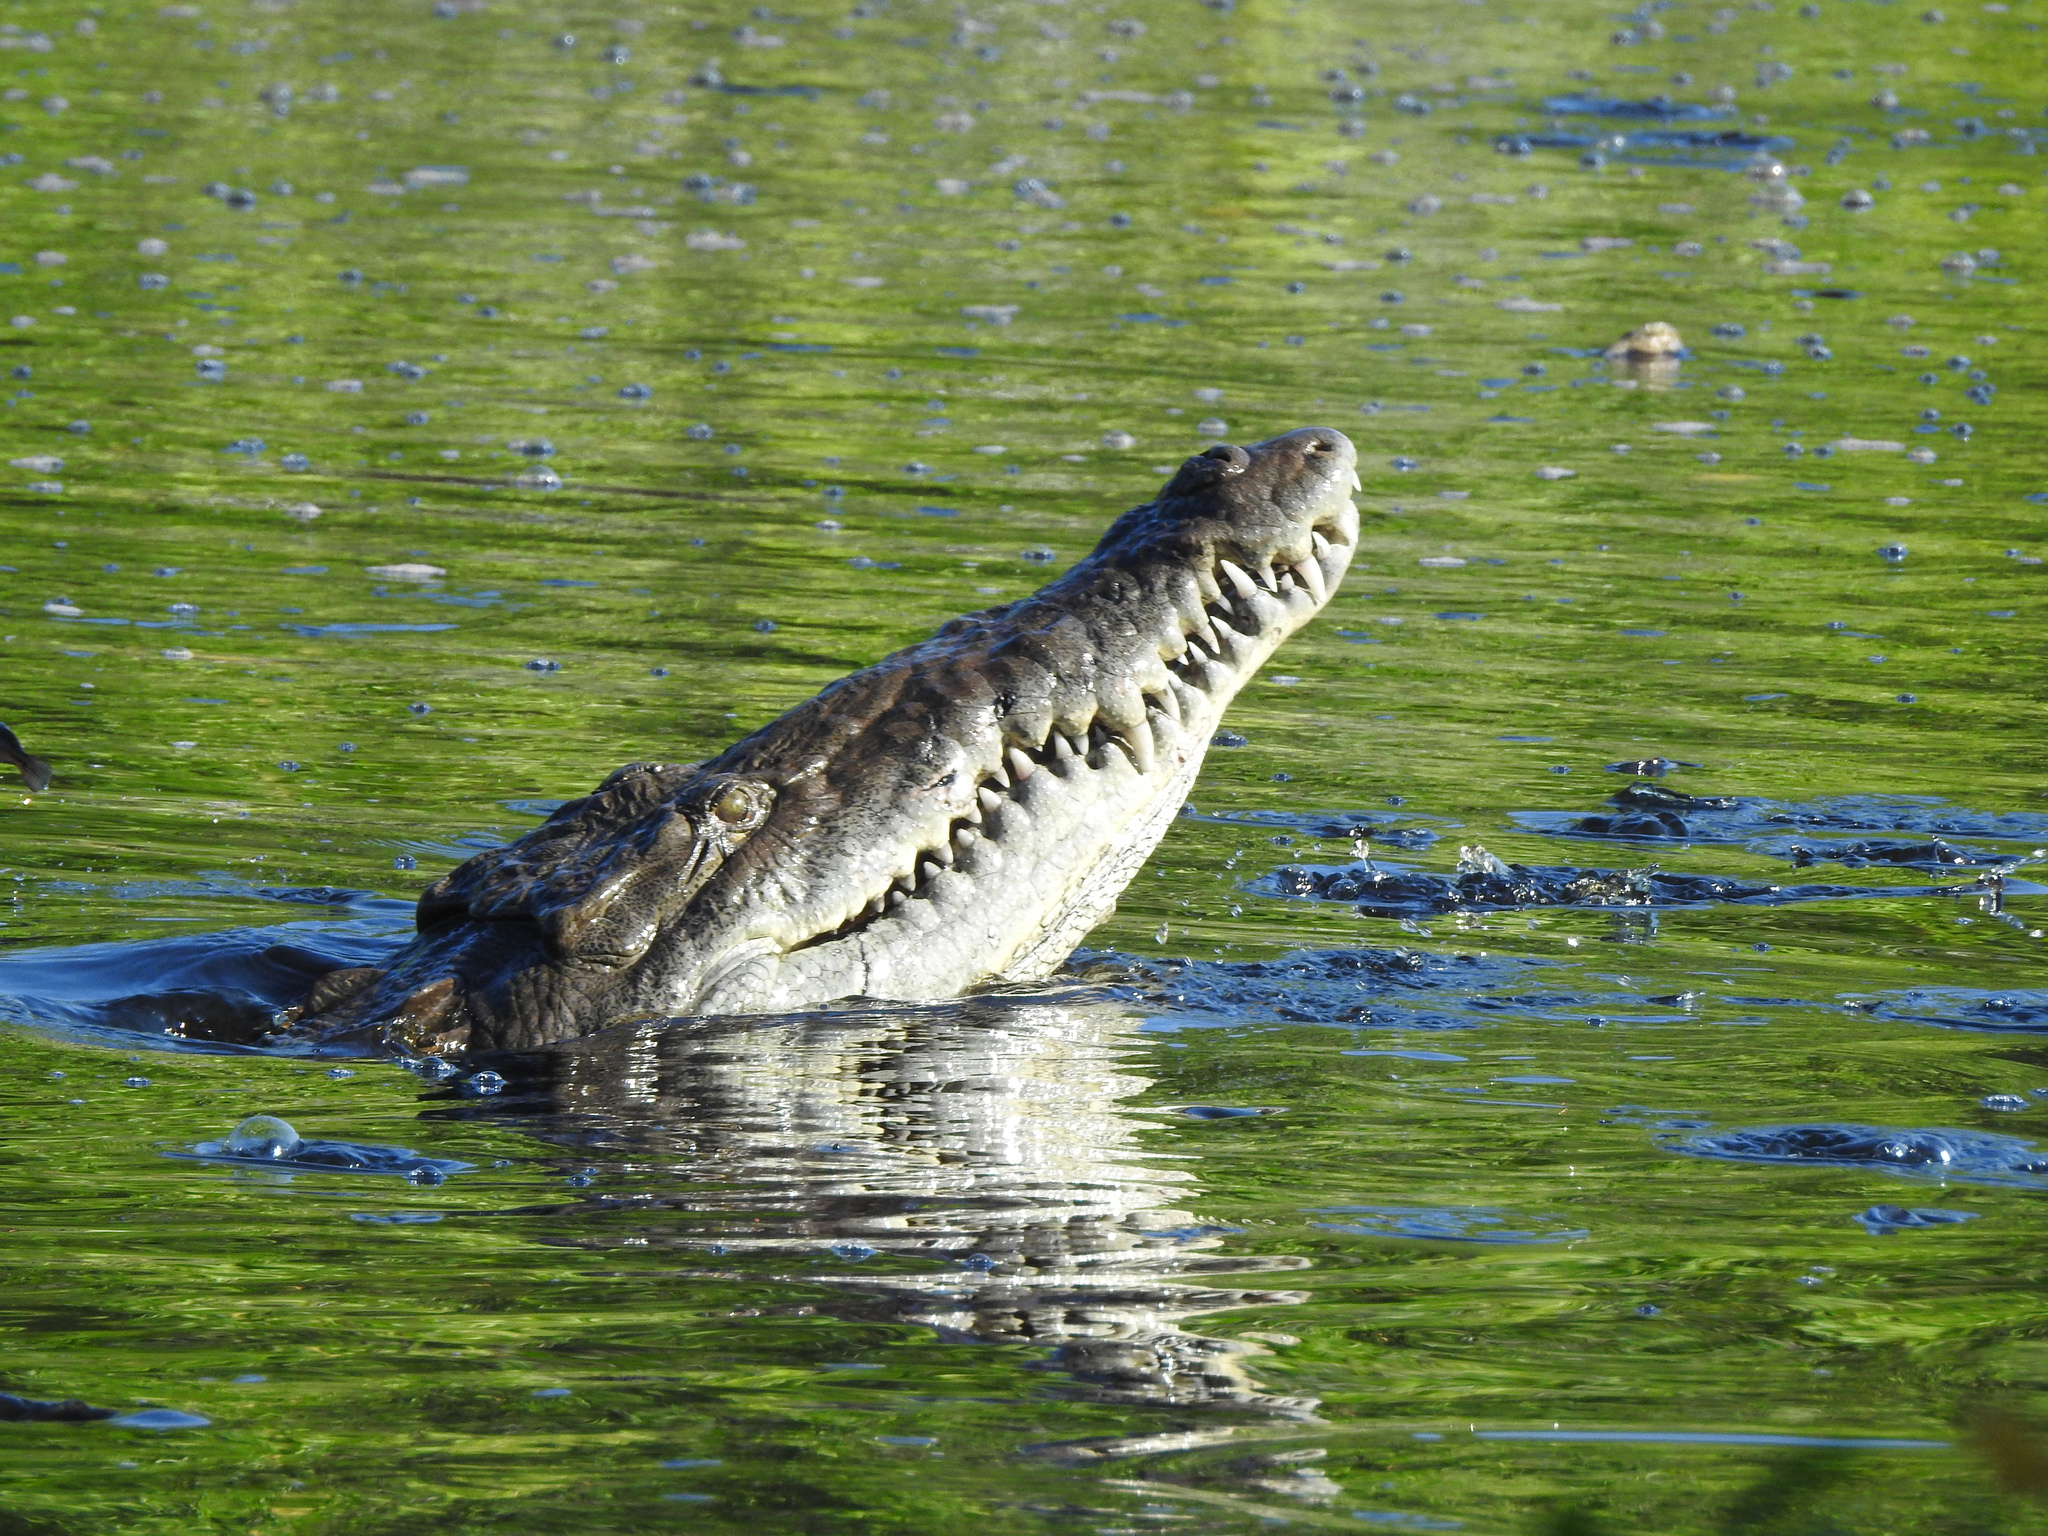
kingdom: Animalia
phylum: Chordata
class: Crocodylia
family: Crocodylidae
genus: Crocodylus
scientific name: Crocodylus acutus
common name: American crocodile
